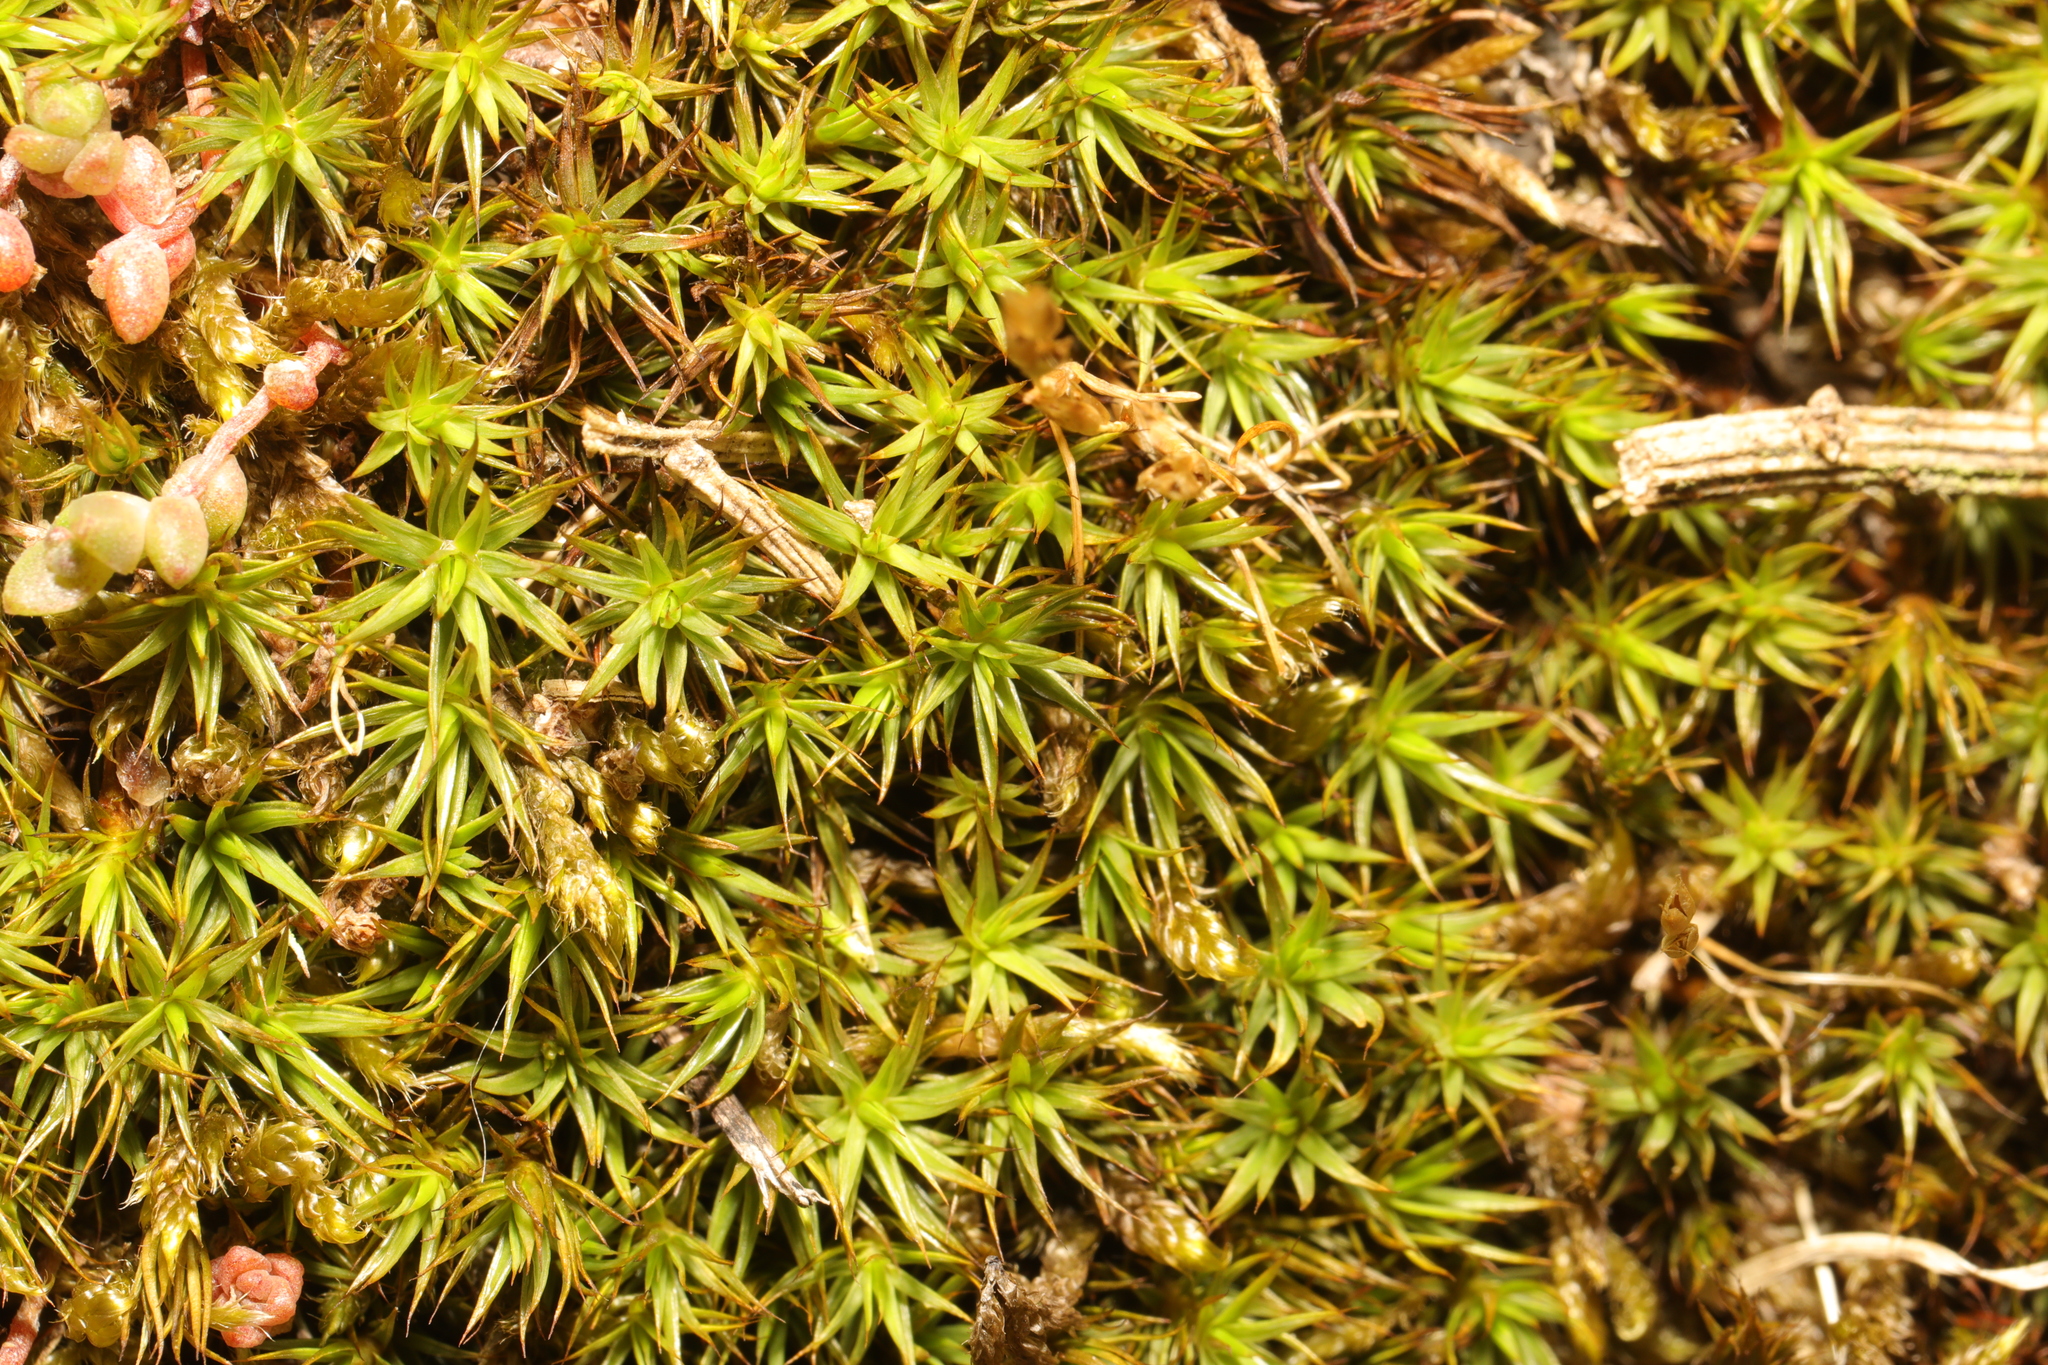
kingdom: Plantae
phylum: Bryophyta
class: Polytrichopsida
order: Polytrichales
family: Polytrichaceae
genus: Polytrichum
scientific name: Polytrichum formosum
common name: Bank haircap moss
